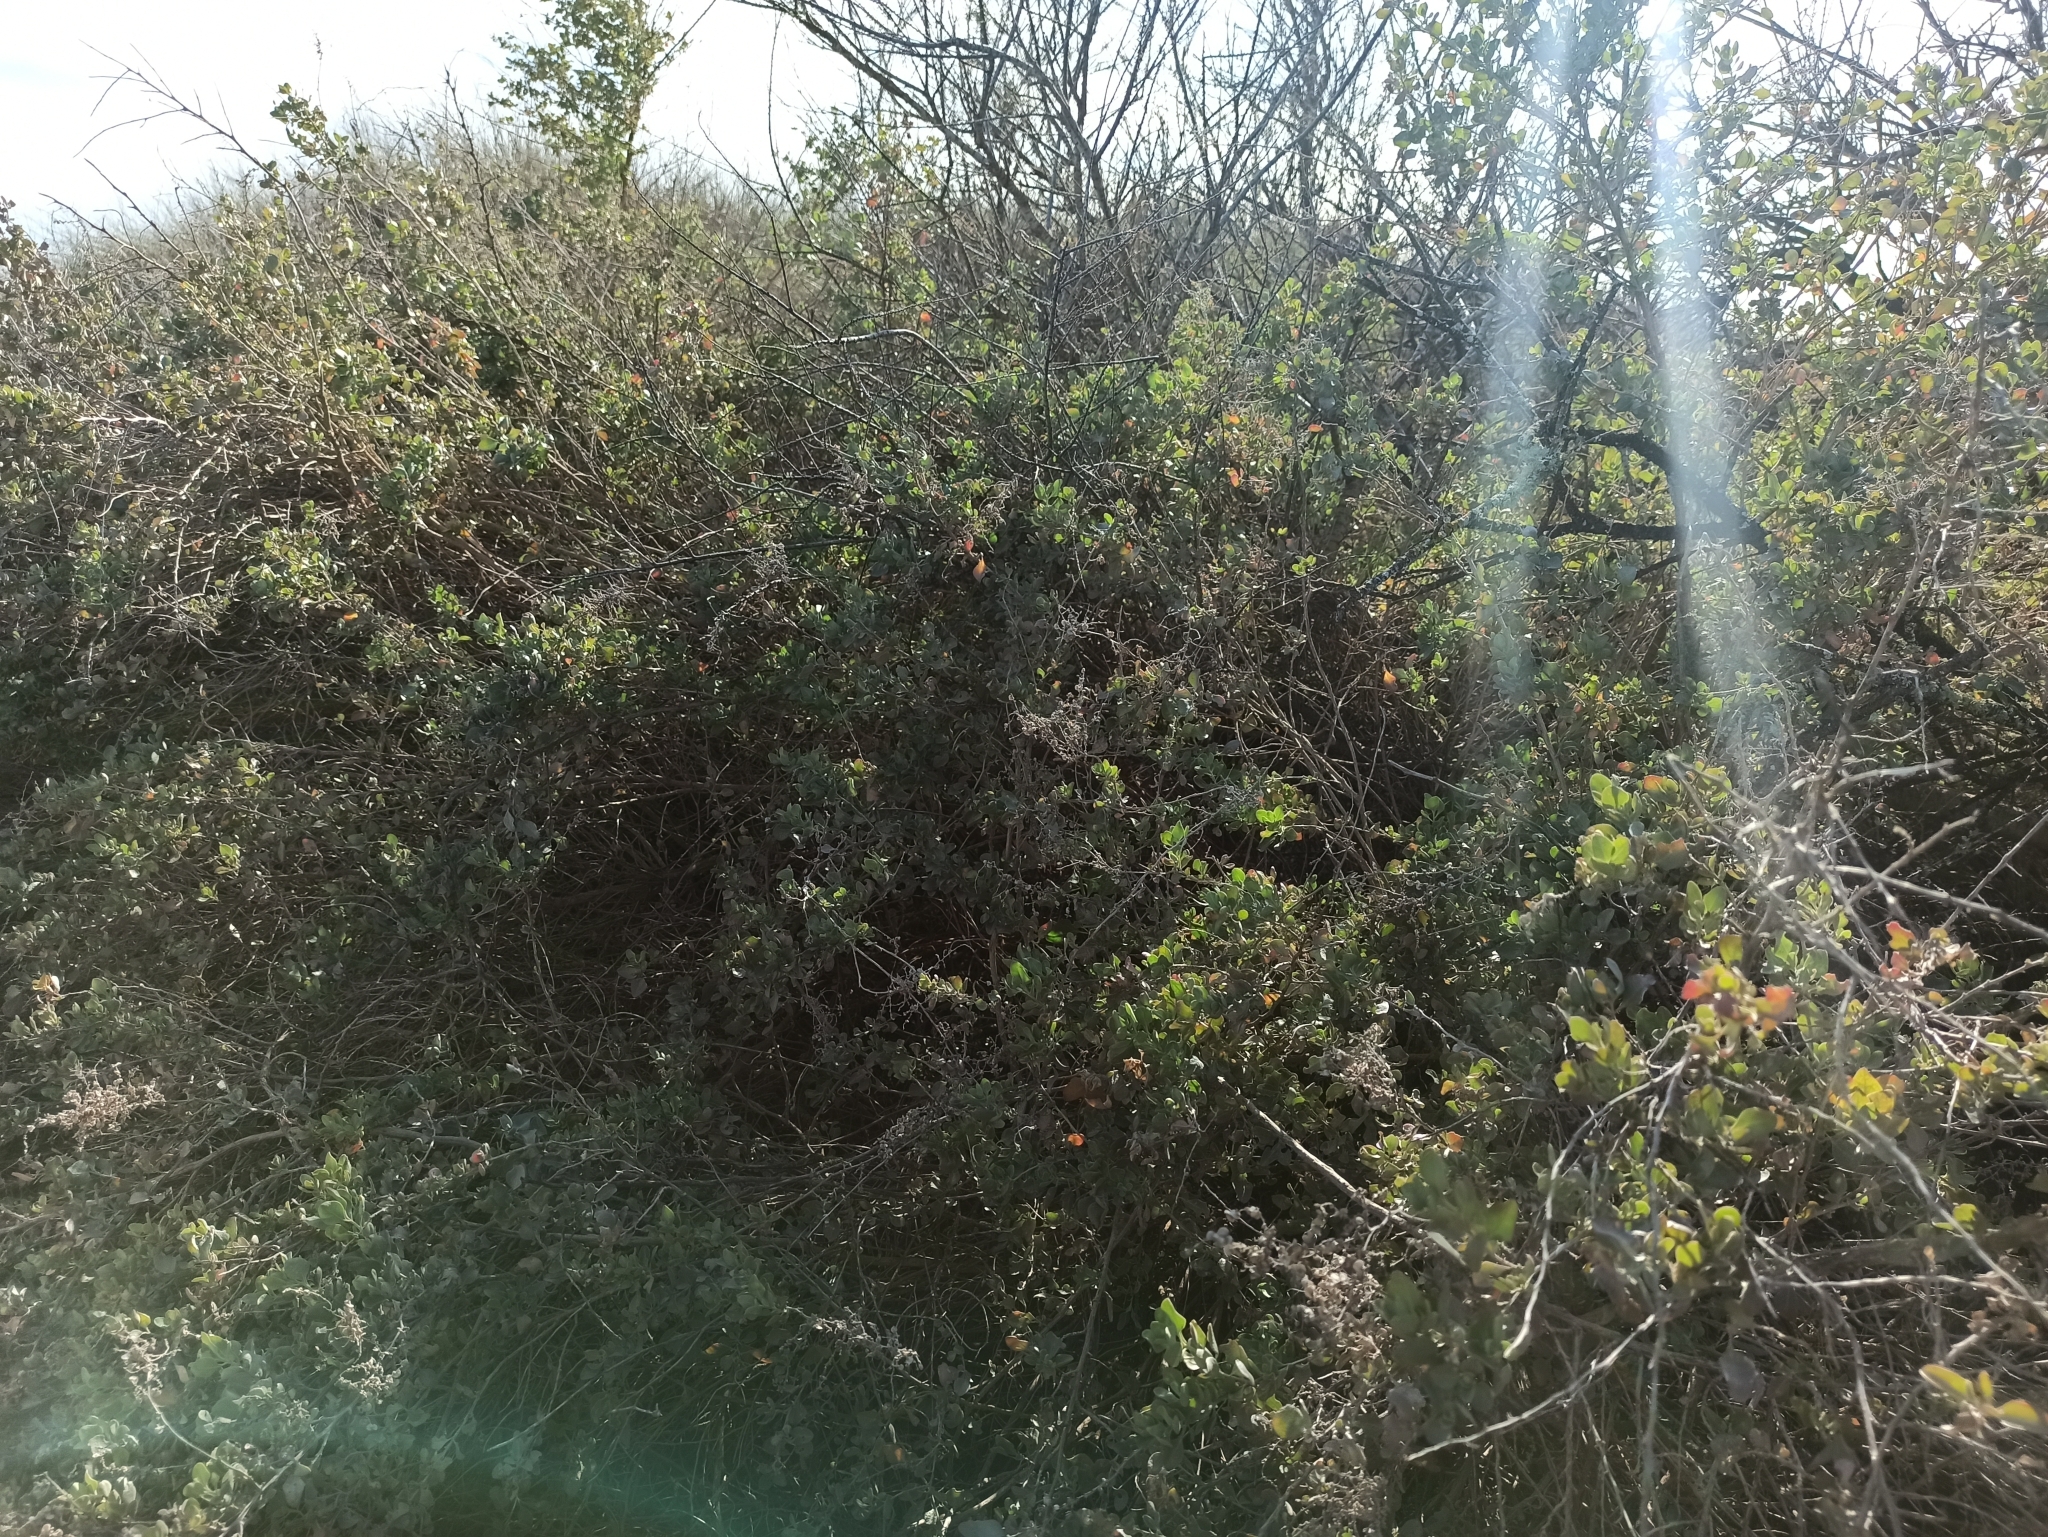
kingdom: Plantae
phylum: Tracheophyta
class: Magnoliopsida
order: Caryophyllales
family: Amaranthaceae
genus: Atriplex
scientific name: Atriplex halimus
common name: Shrubby orache
